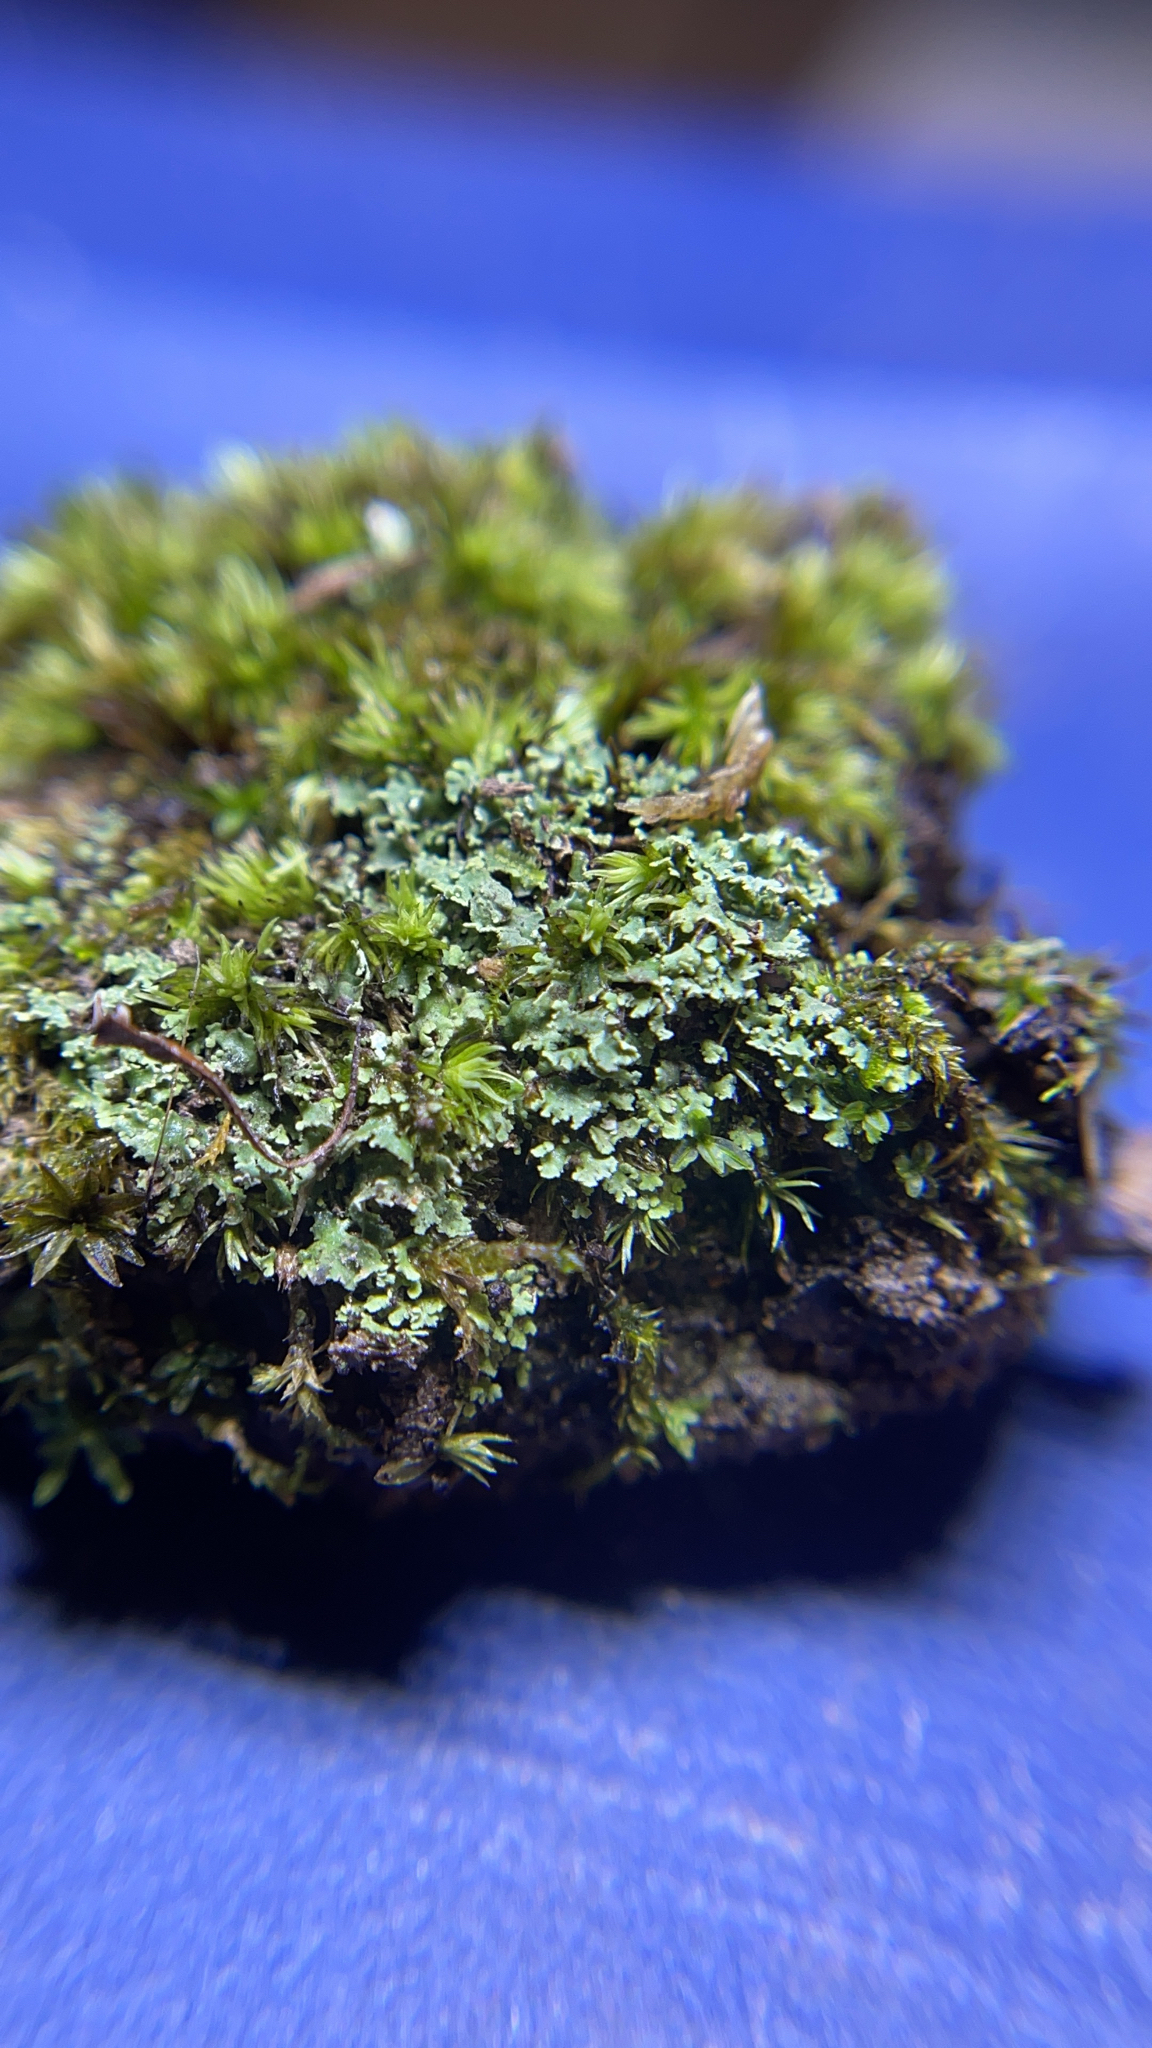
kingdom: Fungi
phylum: Ascomycota
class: Lecanoromycetes
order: Lecanorales
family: Cladoniaceae
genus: Cladonia
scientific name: Cladonia
